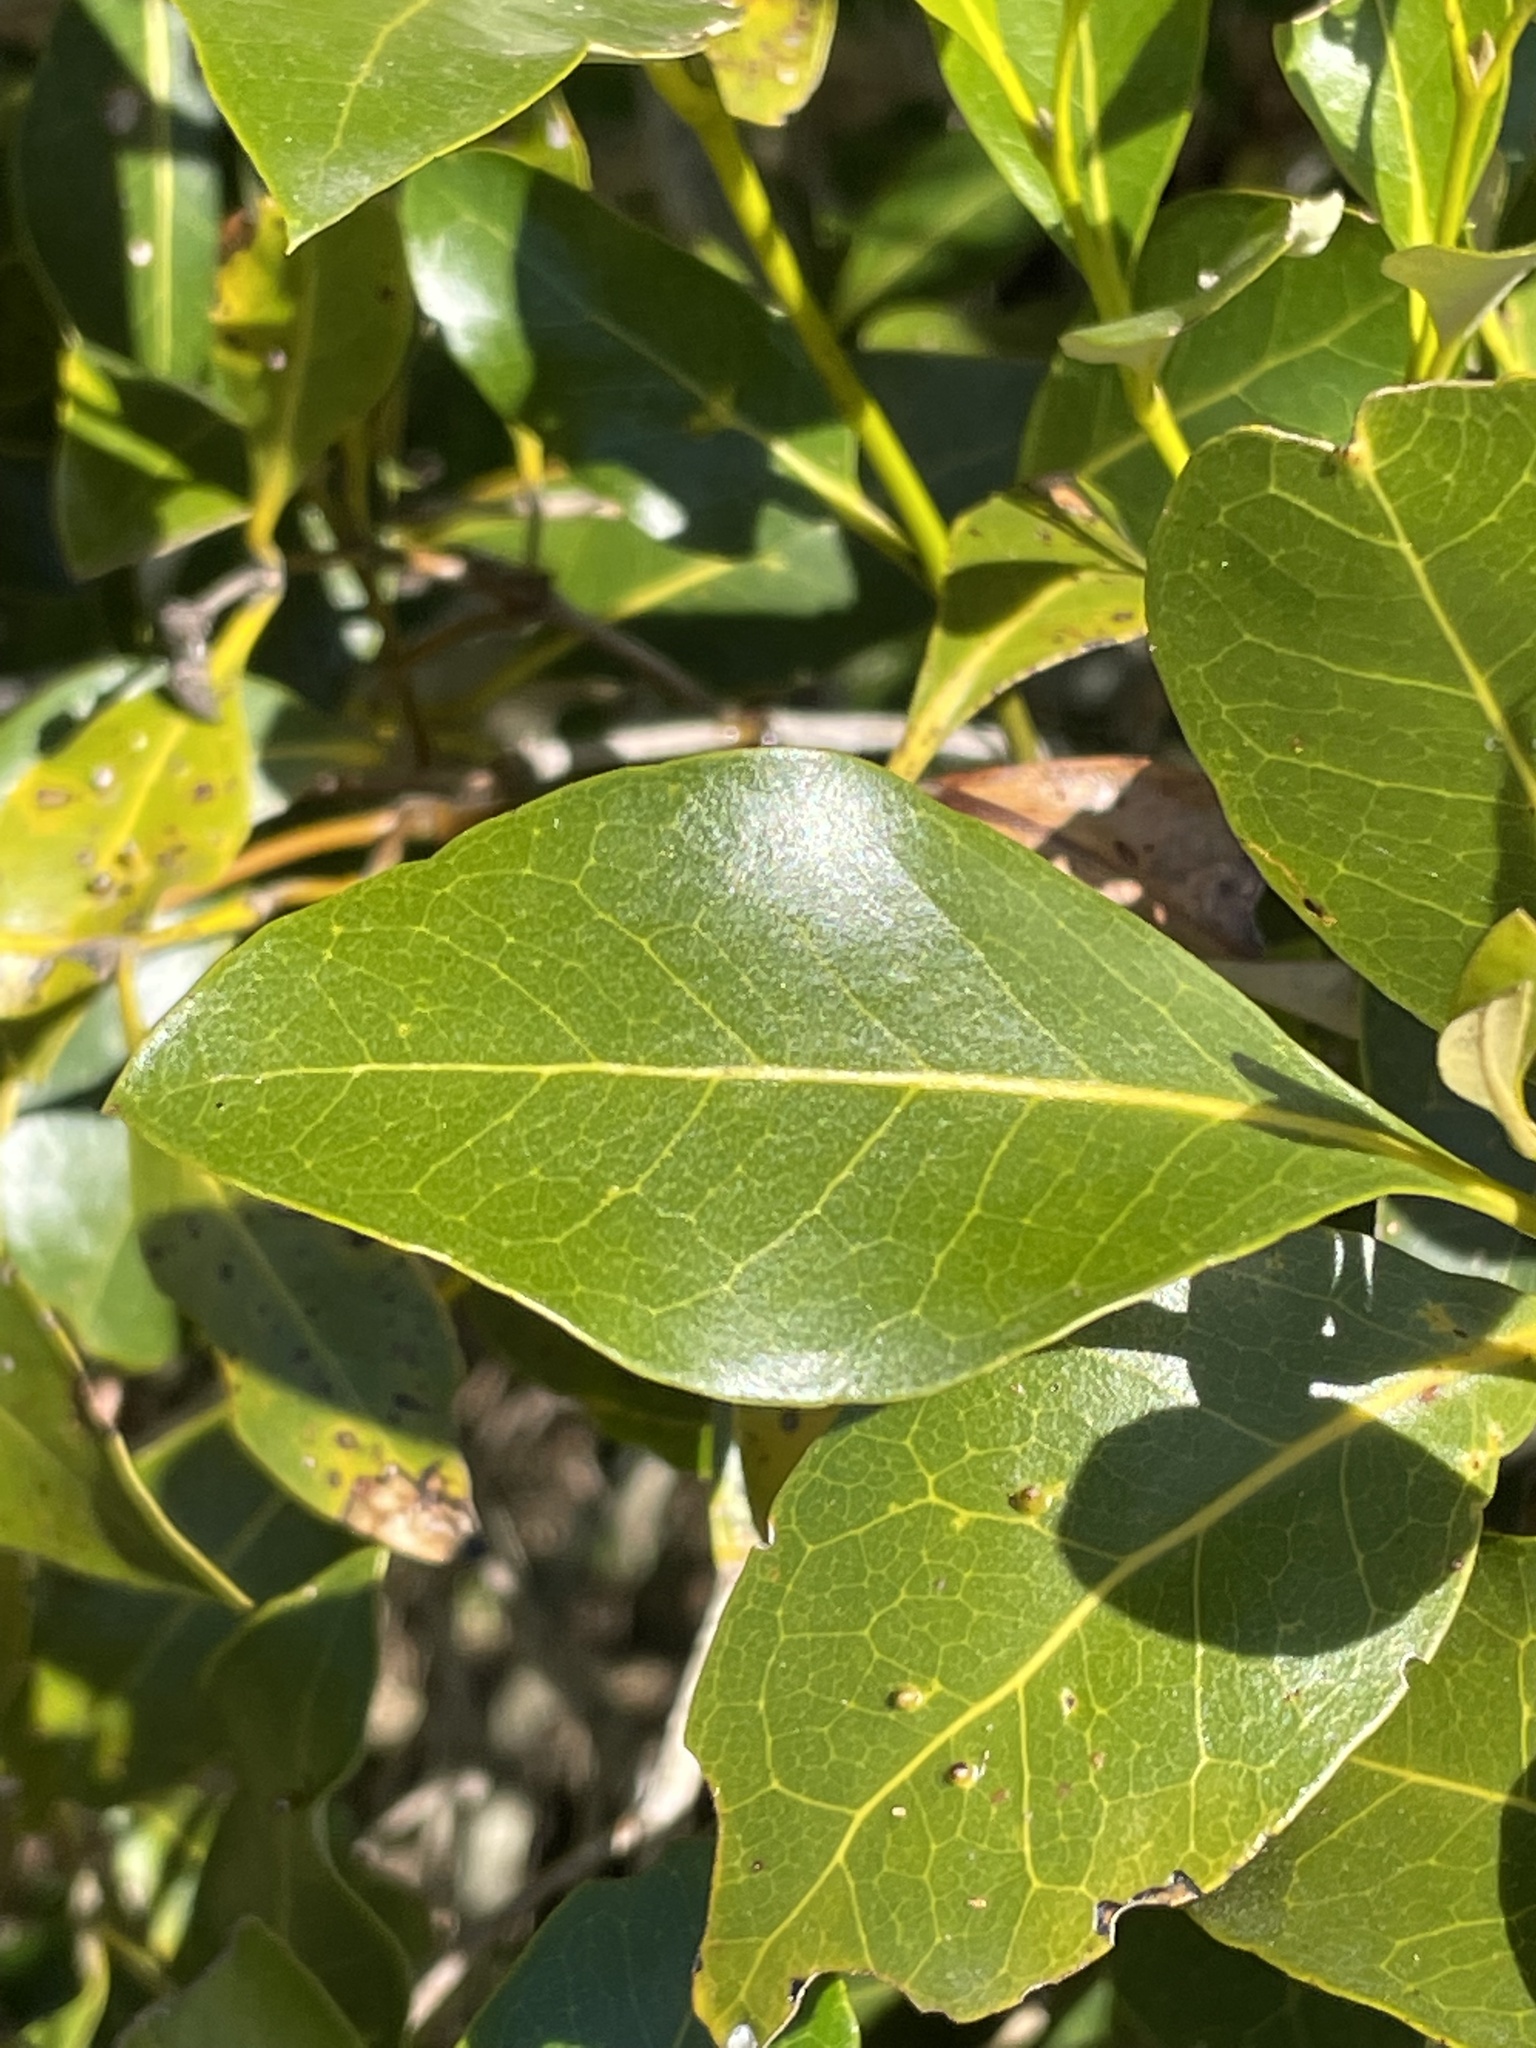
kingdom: Plantae
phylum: Tracheophyta
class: Magnoliopsida
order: Lamiales
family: Acanthaceae
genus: Avicennia
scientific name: Avicennia marina
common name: Gray mangrove
